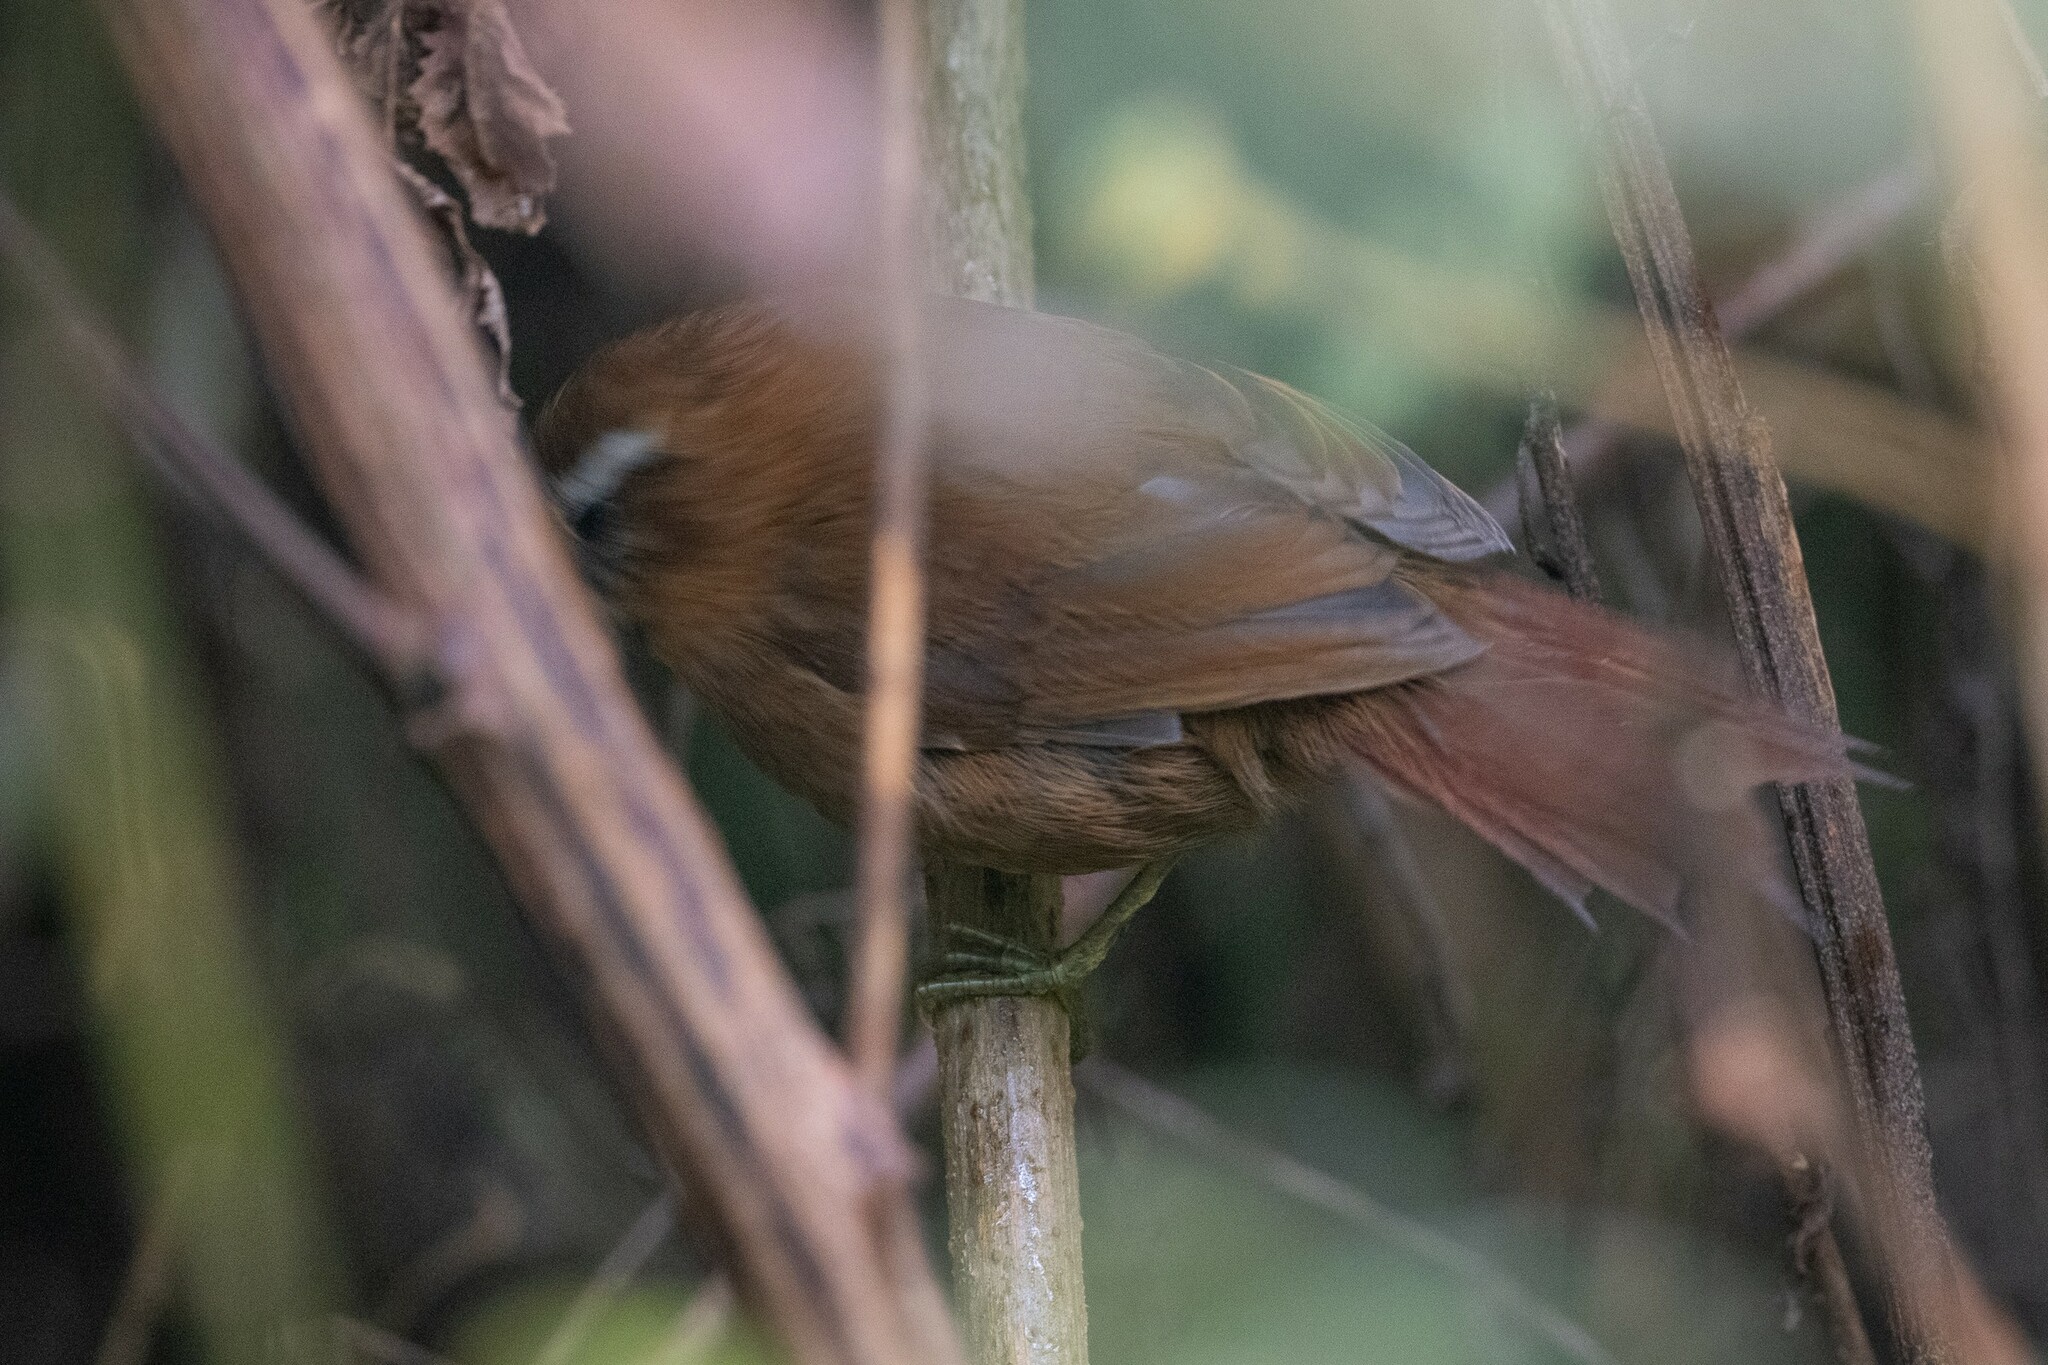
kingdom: Animalia
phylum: Chordata
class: Aves
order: Passeriformes
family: Furnariidae
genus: Hellmayrea
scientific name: Hellmayrea gularis
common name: White-browed spinetail
